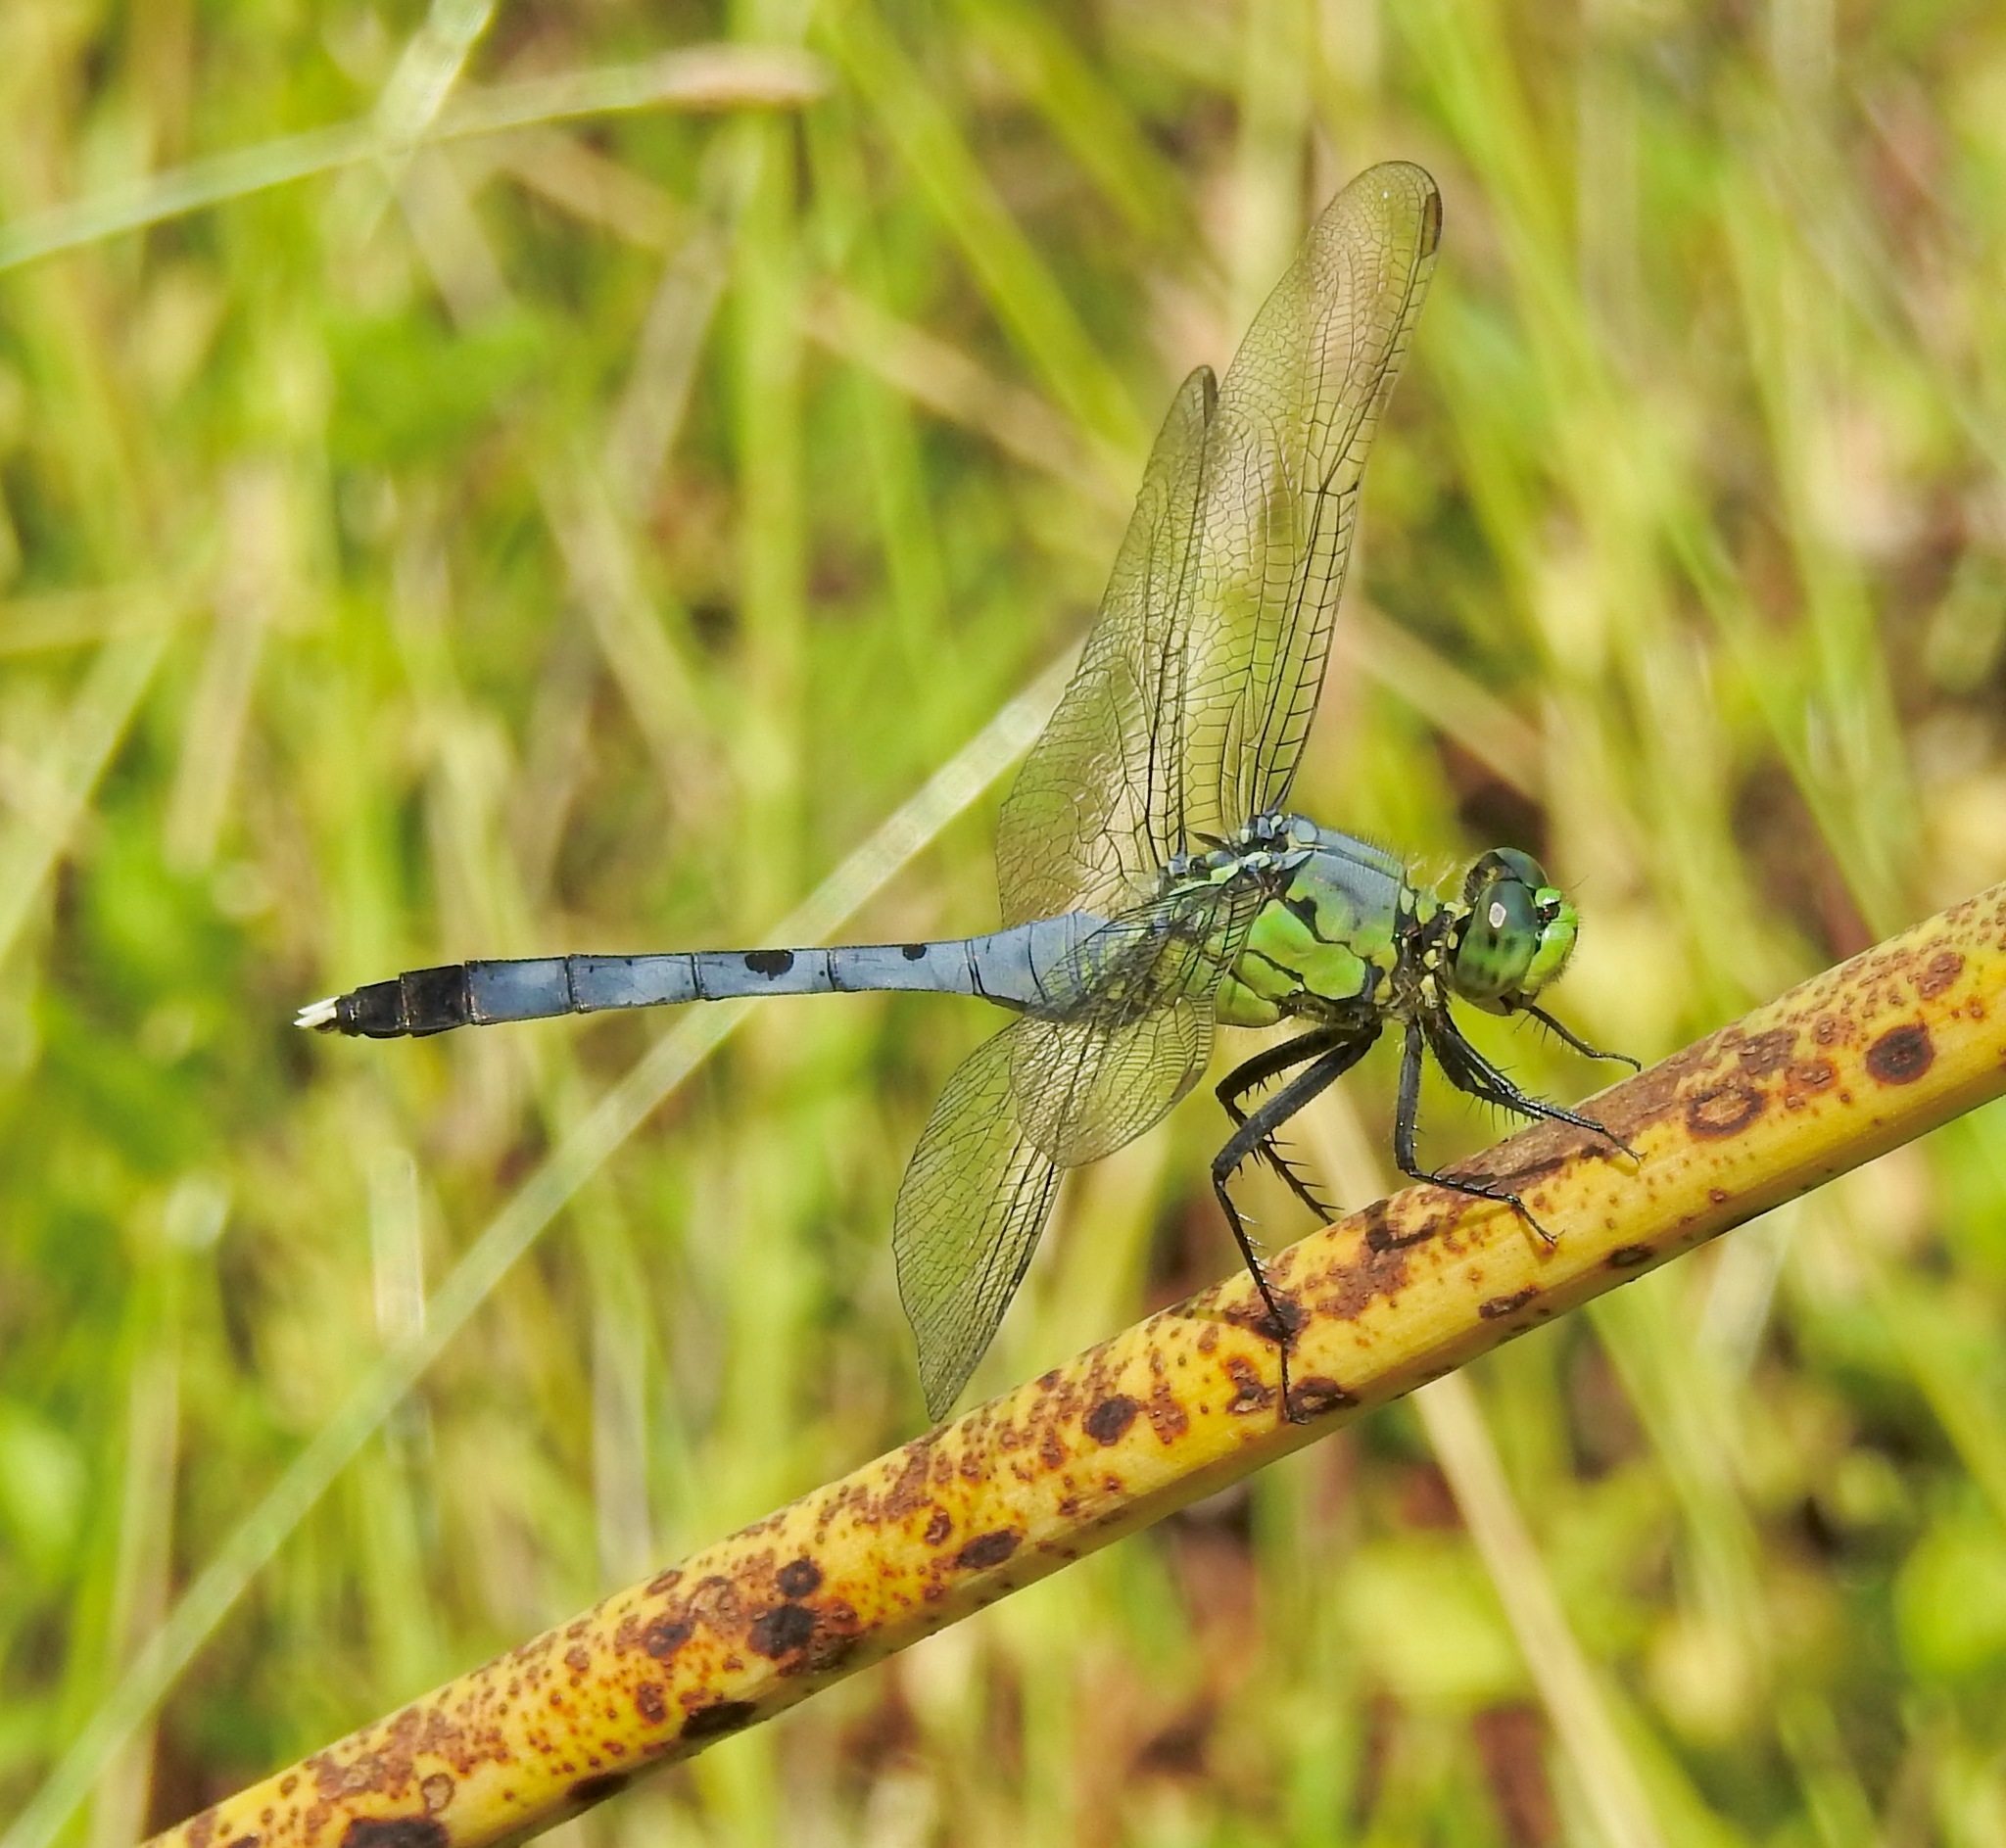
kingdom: Animalia
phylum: Arthropoda
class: Insecta
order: Odonata
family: Libellulidae
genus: Erythemis
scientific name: Erythemis simplicicollis
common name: Eastern pondhawk
